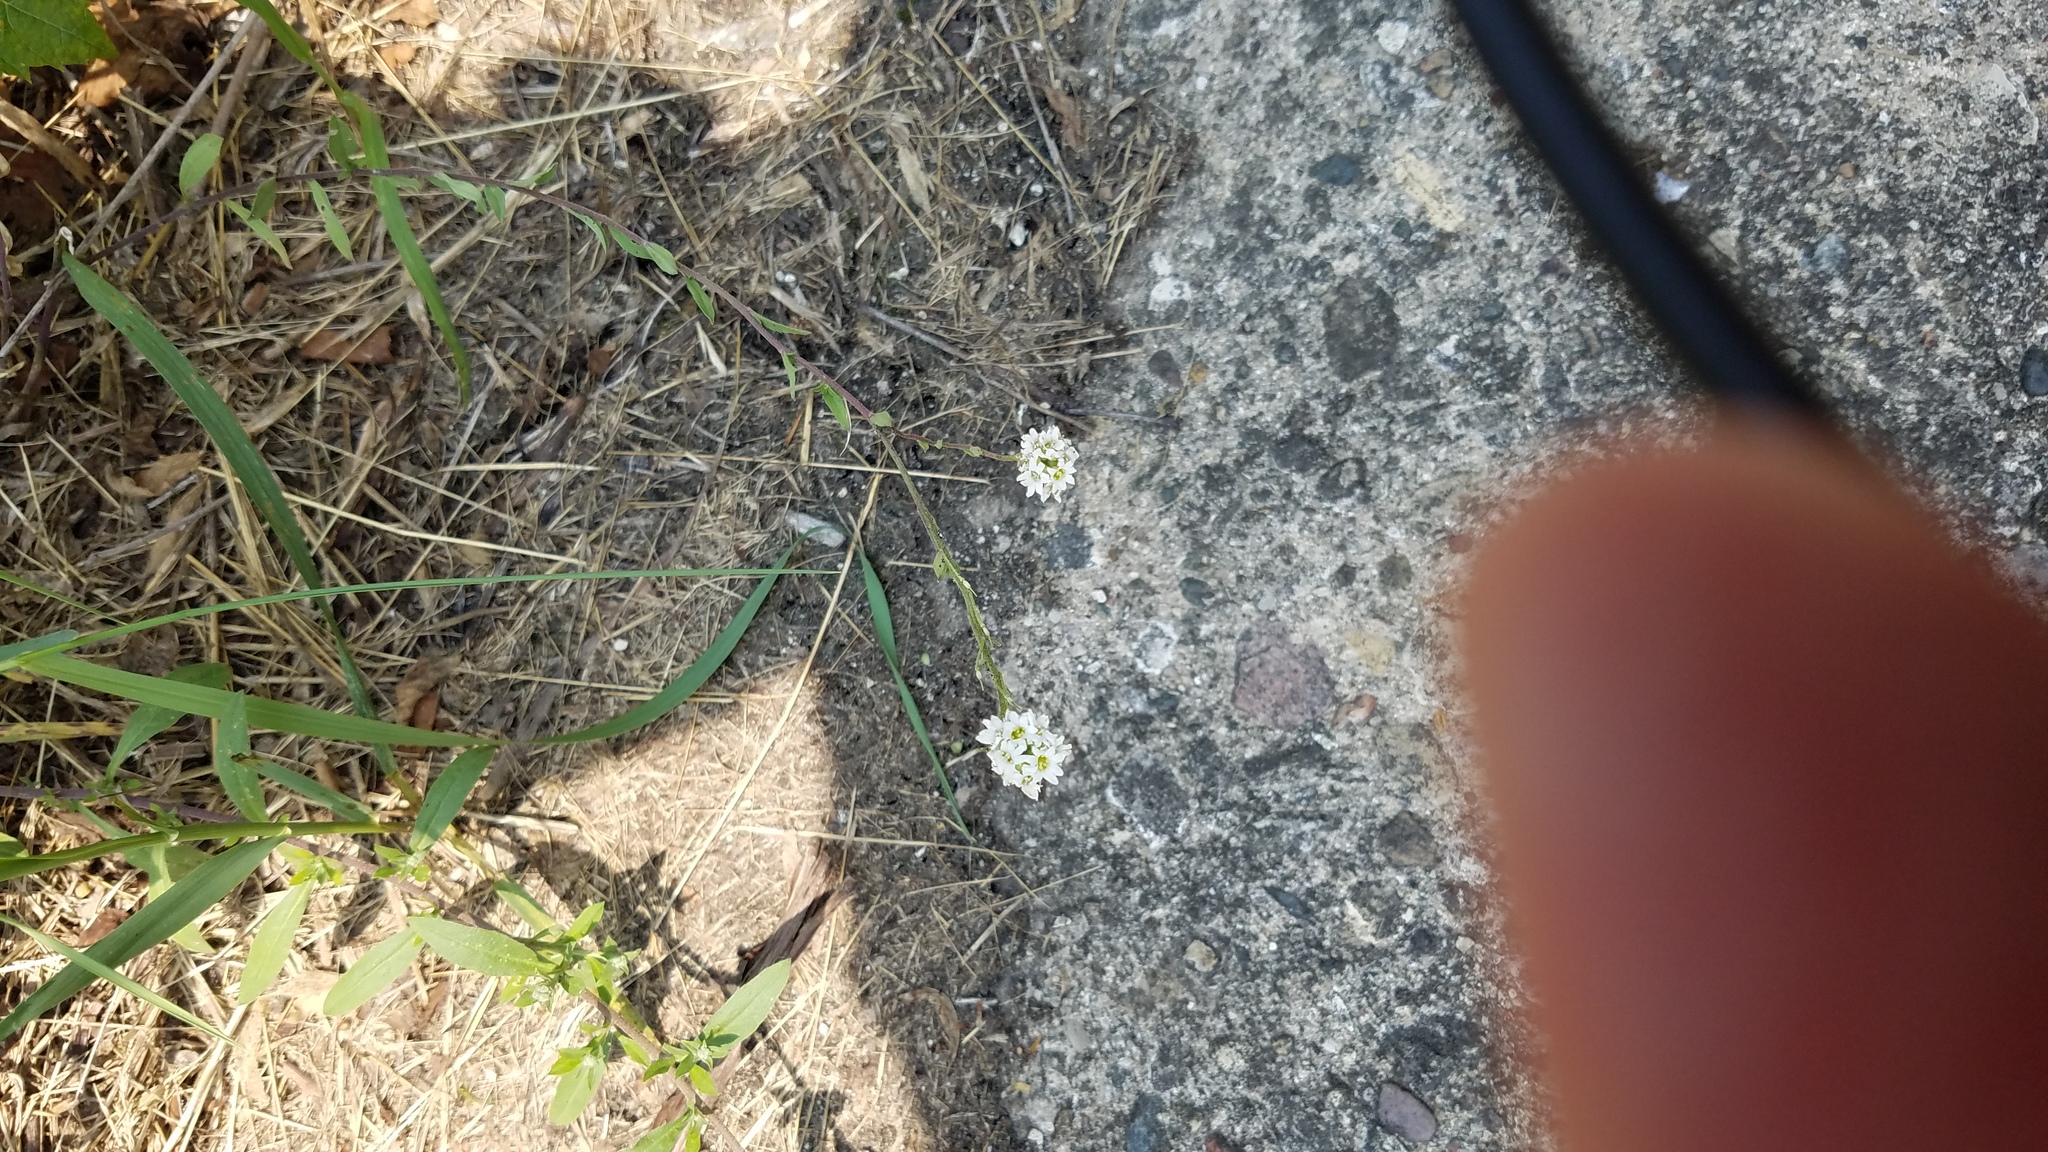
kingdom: Plantae
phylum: Tracheophyta
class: Magnoliopsida
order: Brassicales
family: Brassicaceae
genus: Berteroa
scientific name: Berteroa incana
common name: Hoary alison
